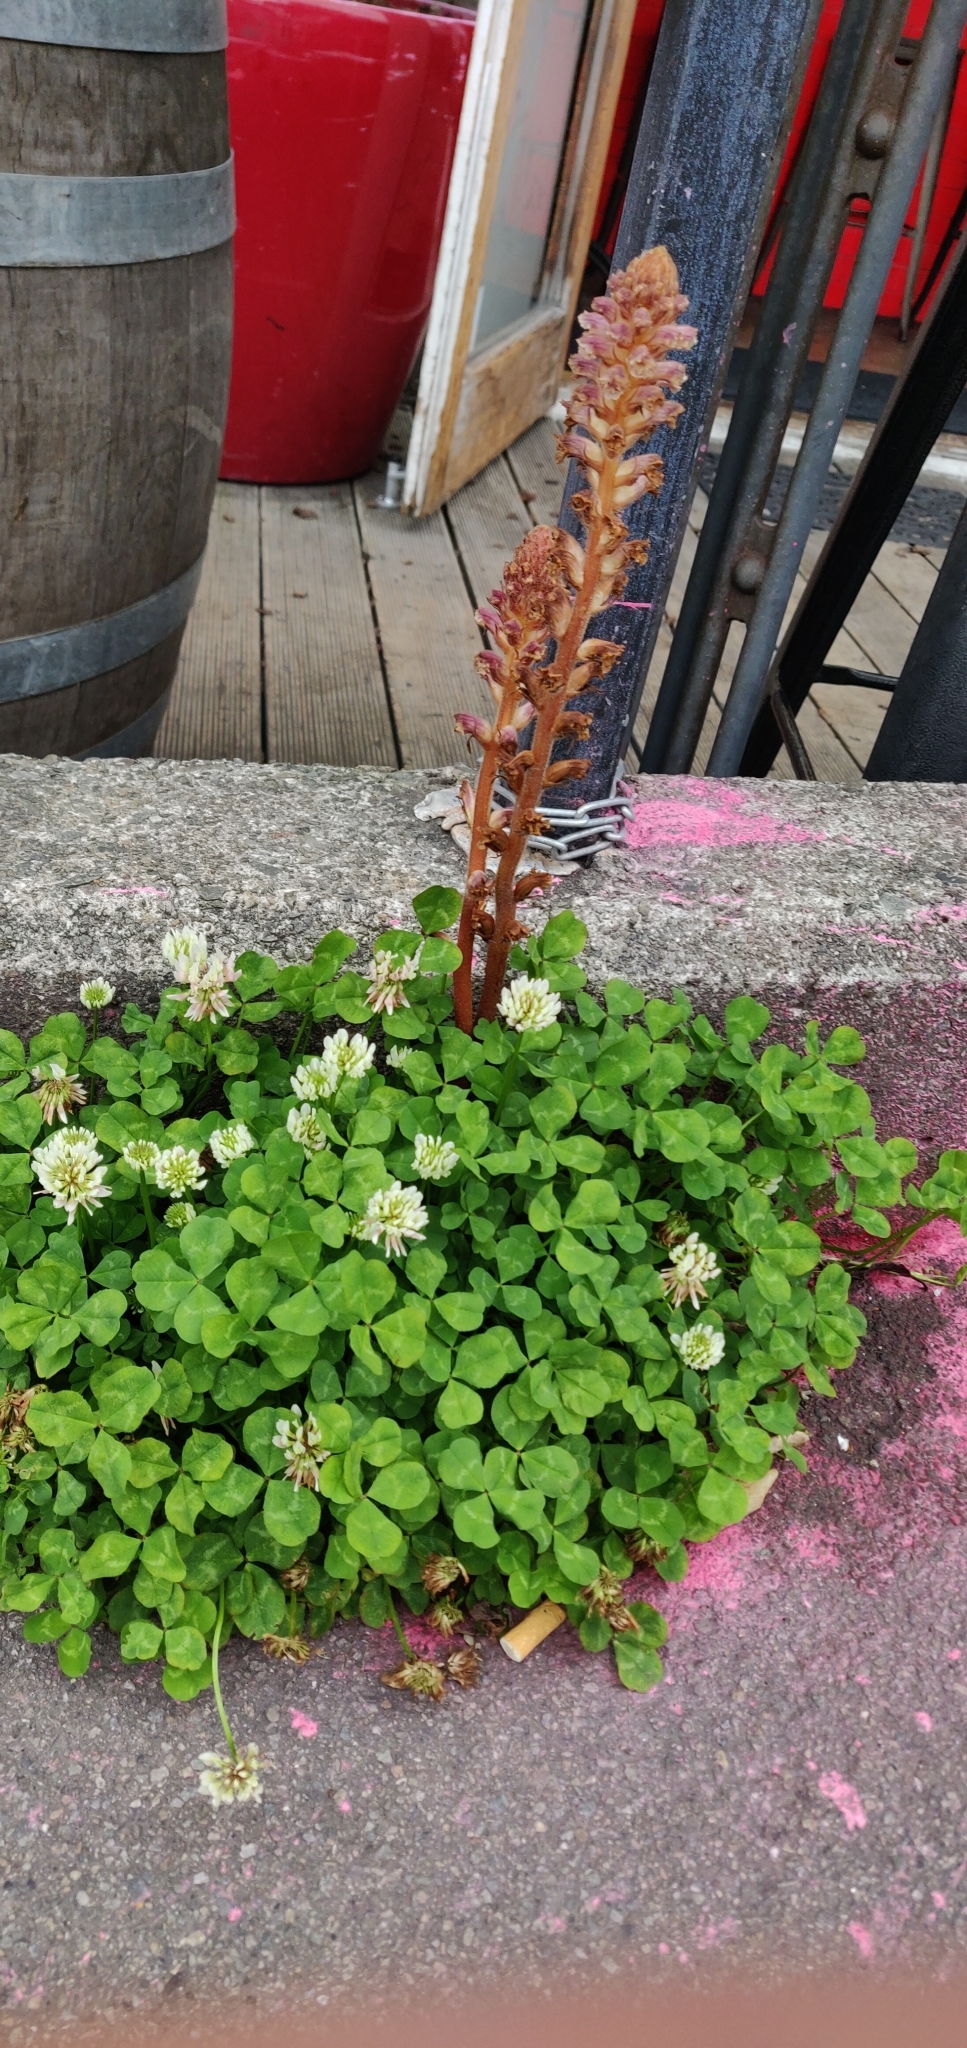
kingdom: Plantae
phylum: Tracheophyta
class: Magnoliopsida
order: Lamiales
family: Orobanchaceae
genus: Orobanche
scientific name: Orobanche minor
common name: Common broomrape
